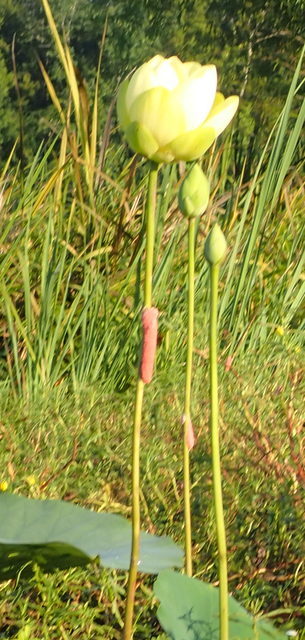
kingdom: Animalia
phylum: Mollusca
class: Gastropoda
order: Architaenioglossa
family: Ampullariidae
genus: Pomacea
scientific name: Pomacea maculata
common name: Giant applesnail
